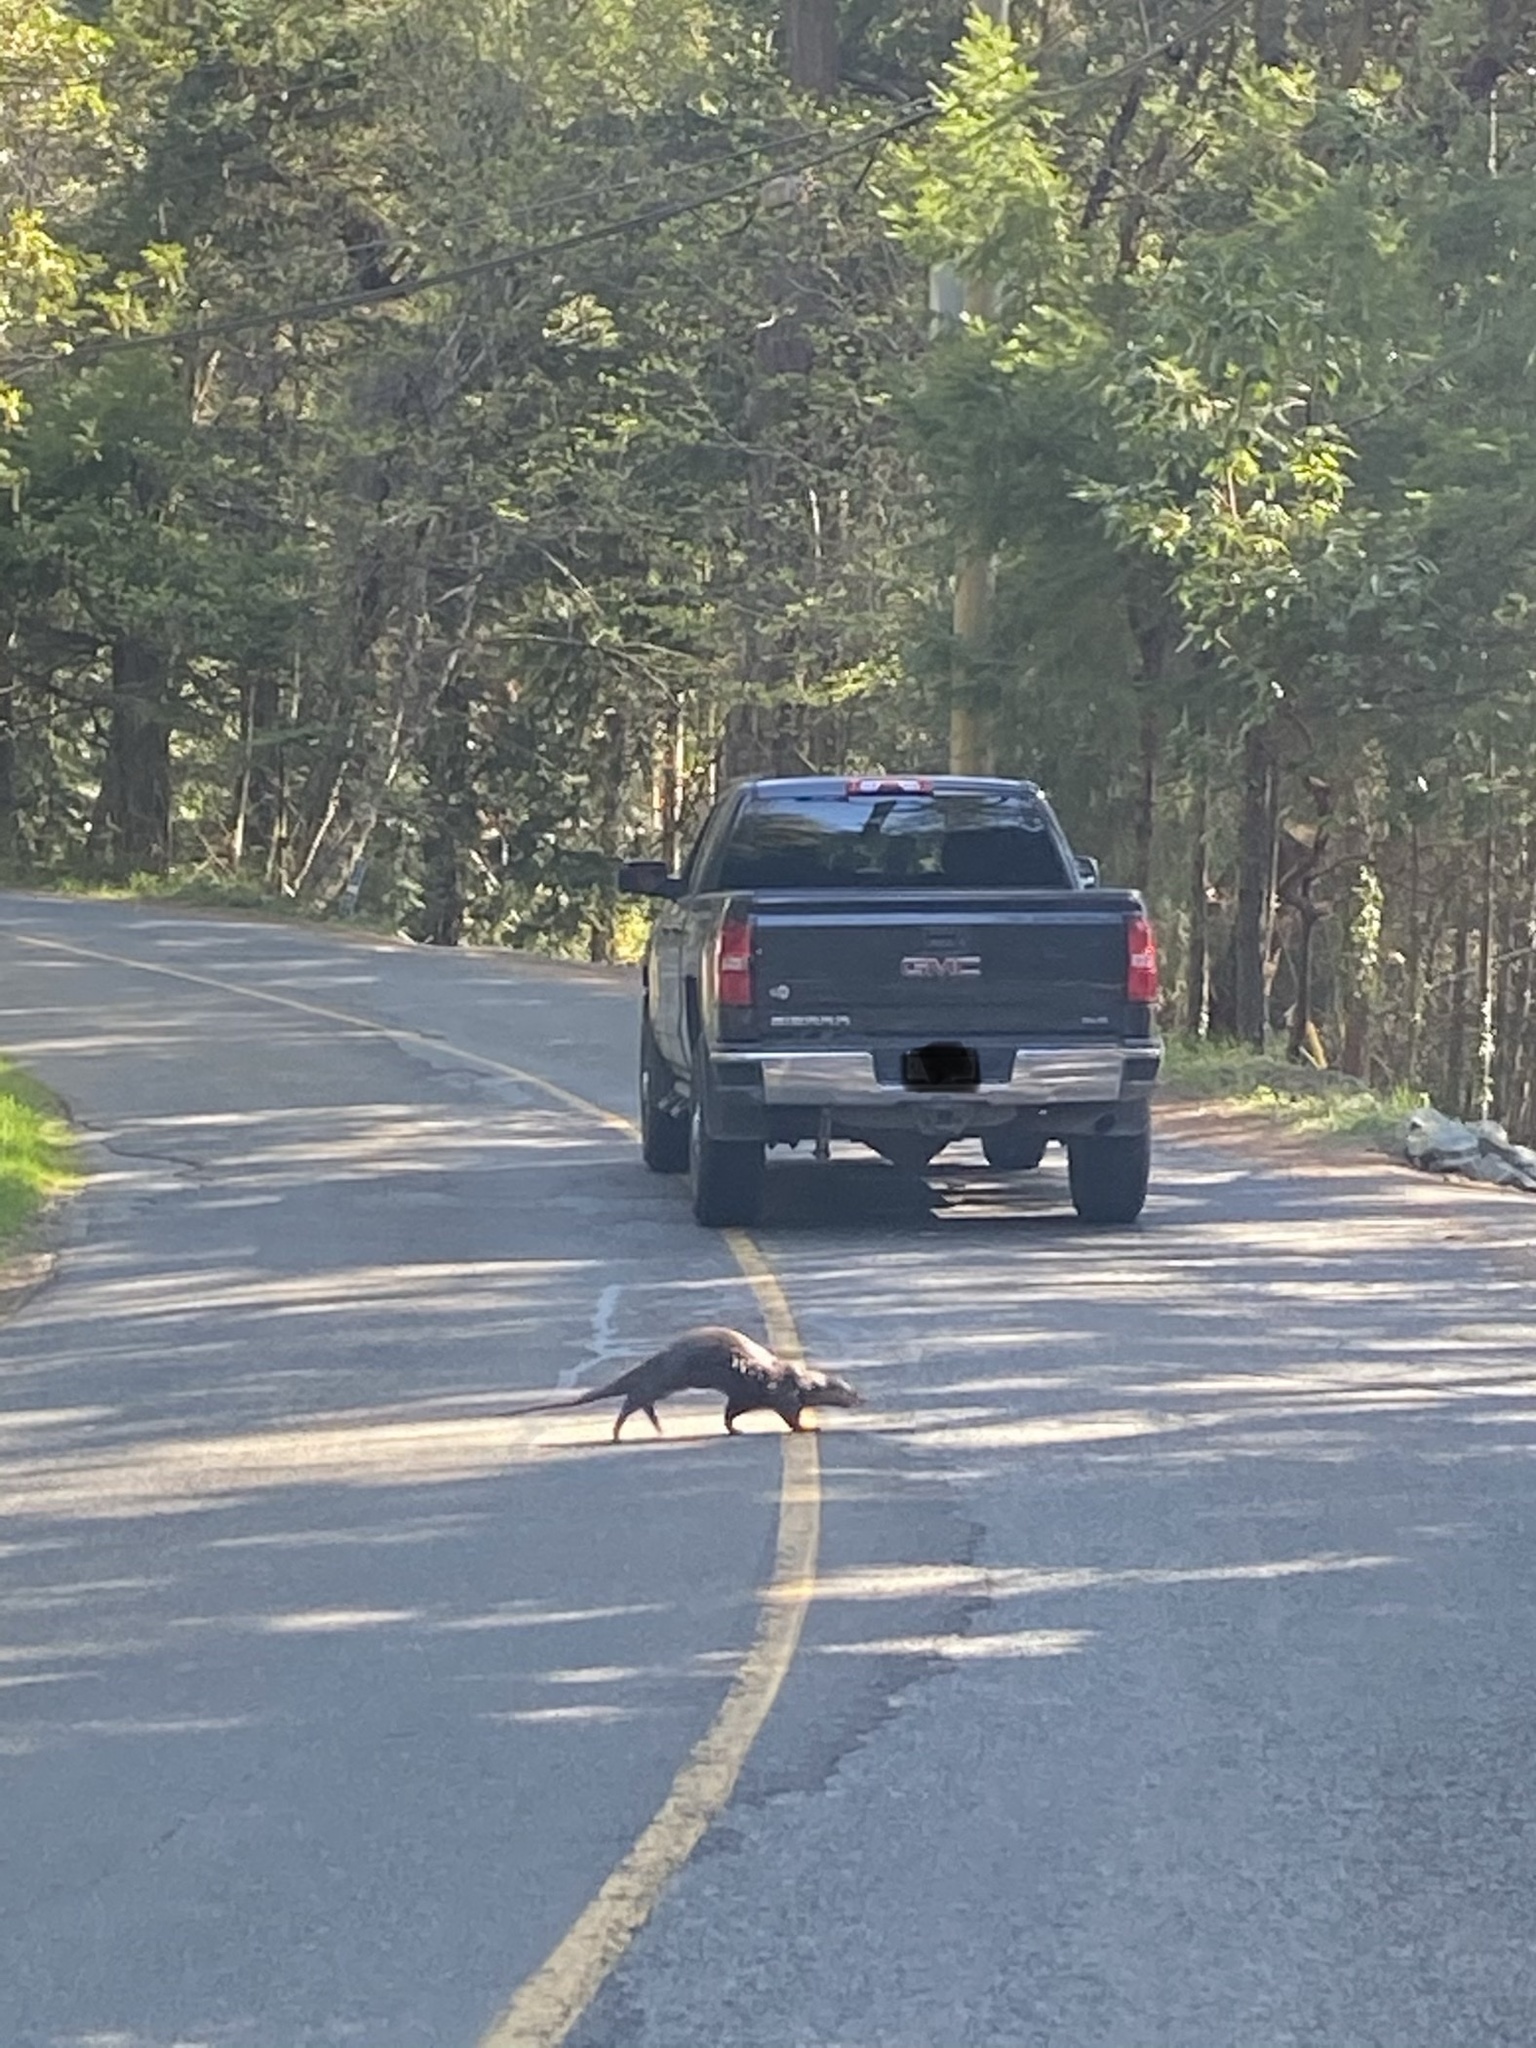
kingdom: Animalia
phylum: Chordata
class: Mammalia
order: Carnivora
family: Mustelidae
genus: Lontra
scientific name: Lontra canadensis
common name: North american river otter
